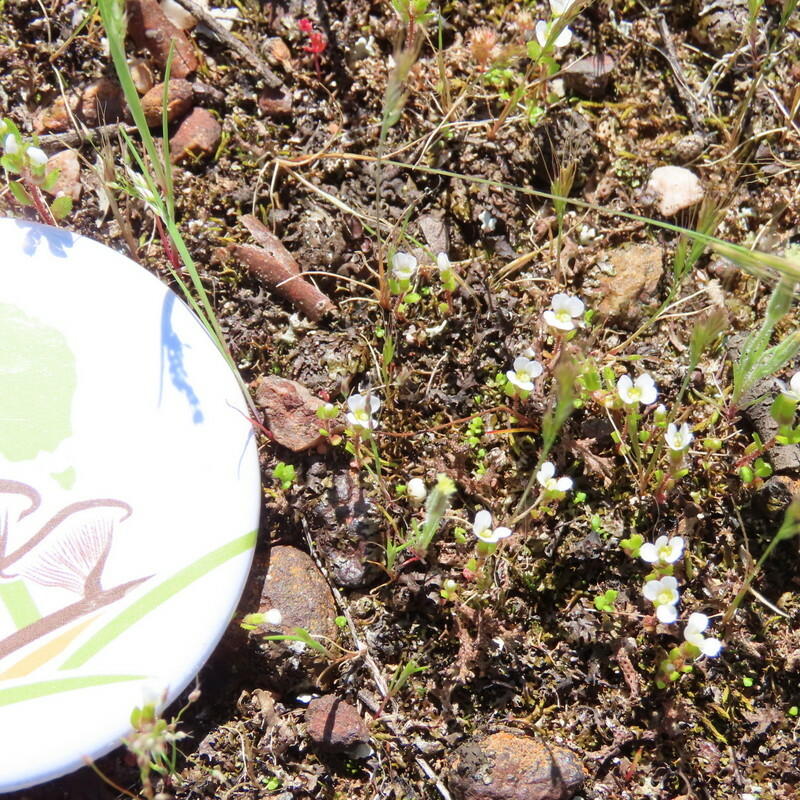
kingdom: Plantae
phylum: Tracheophyta
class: Magnoliopsida
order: Asterales
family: Stylidiaceae
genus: Levenhookia
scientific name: Levenhookia dubia
